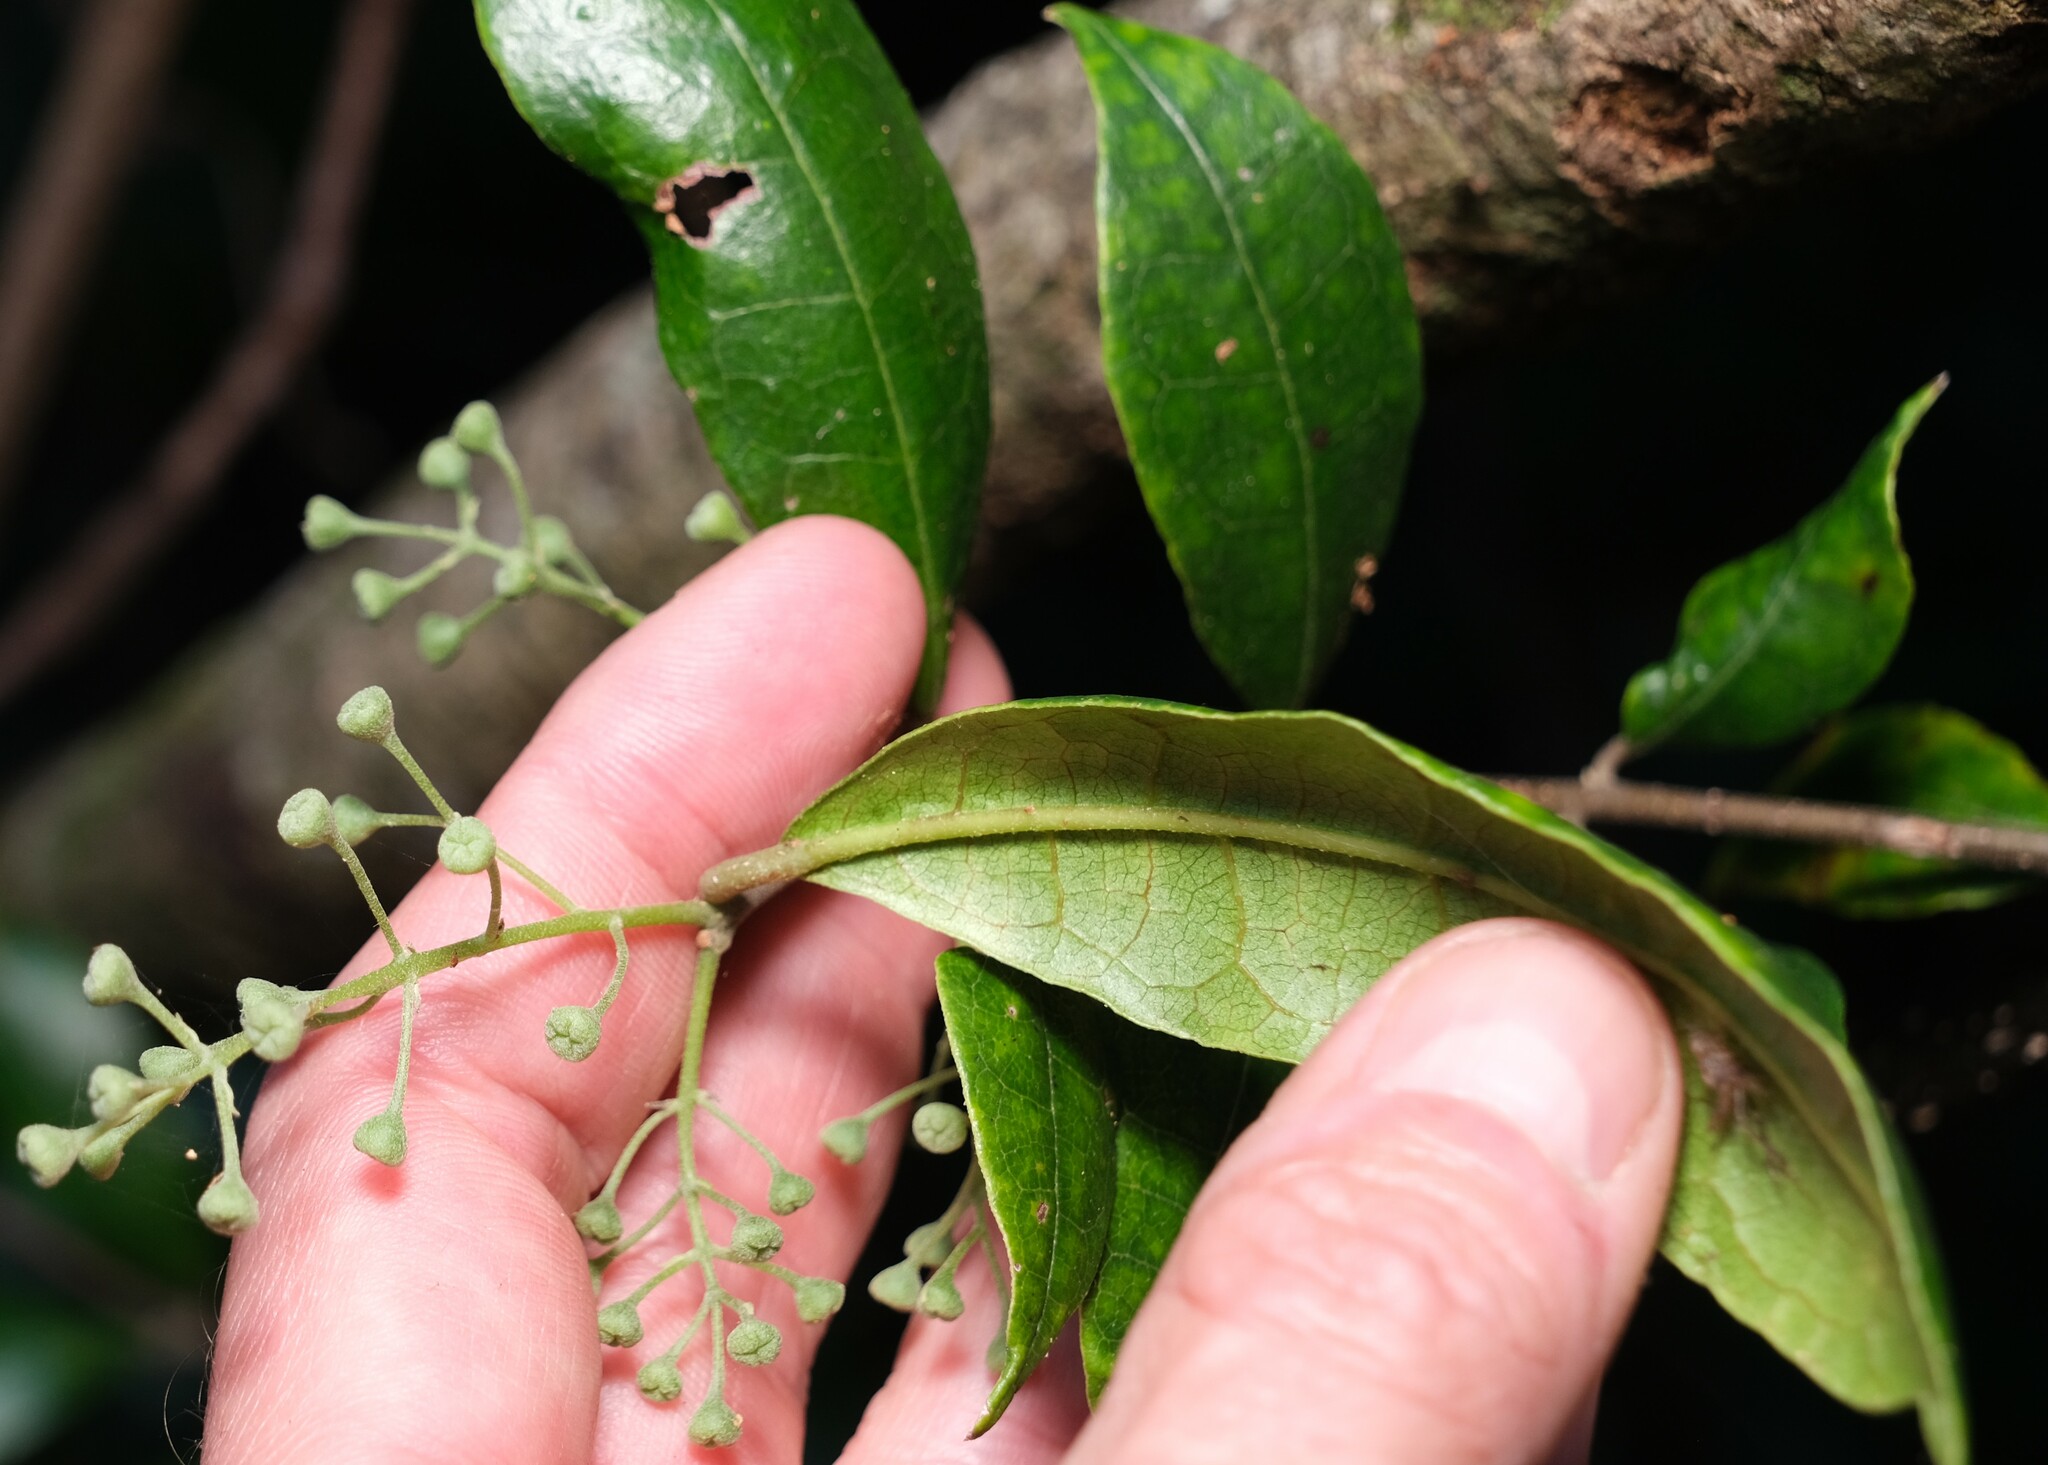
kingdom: Plantae
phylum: Tracheophyta
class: Magnoliopsida
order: Laurales
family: Monimiaceae
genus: Palmeria
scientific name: Palmeria scandens
